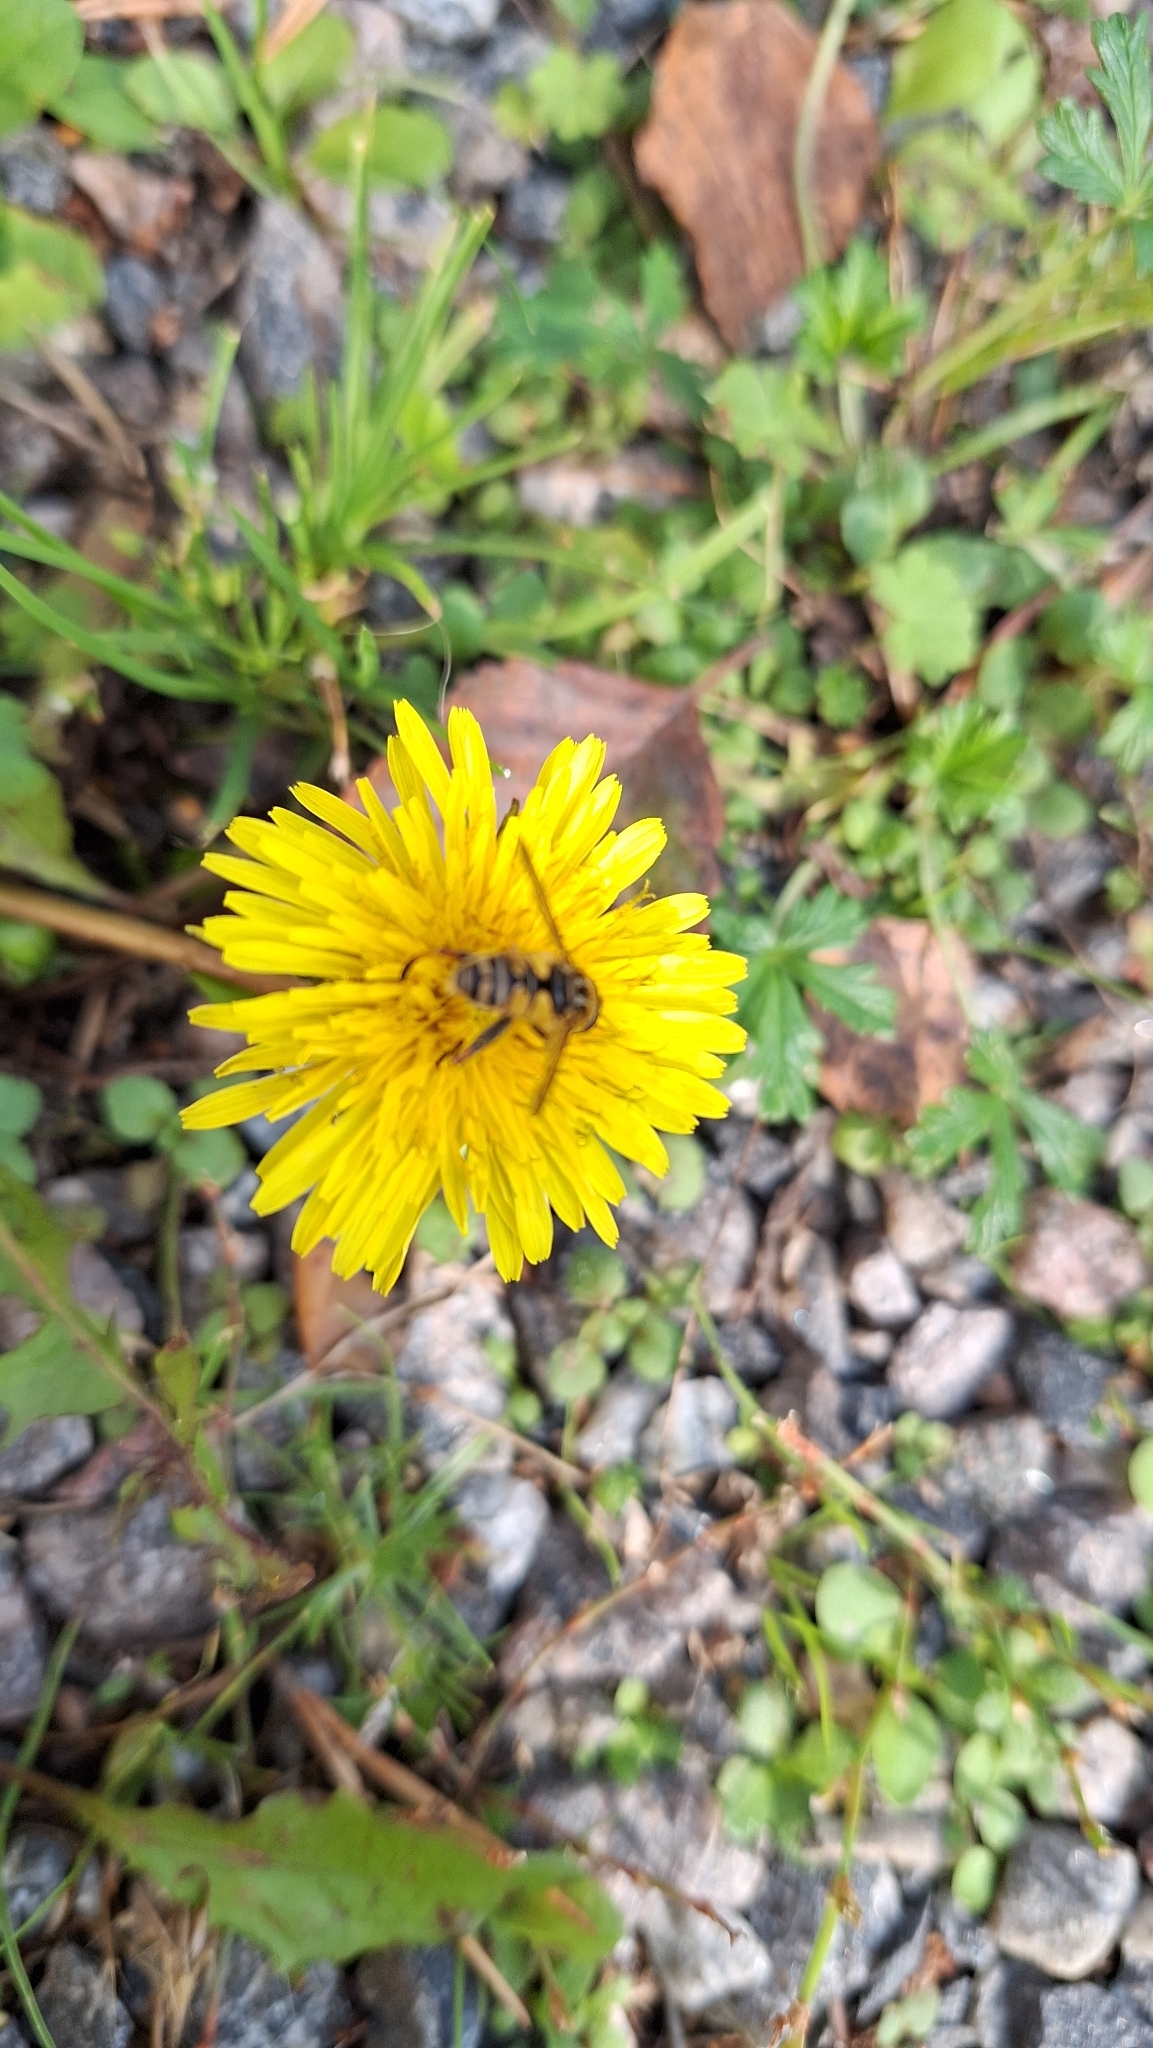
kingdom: Animalia
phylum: Arthropoda
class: Insecta
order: Diptera
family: Syrphidae
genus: Helophilus
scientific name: Helophilus pendulus
